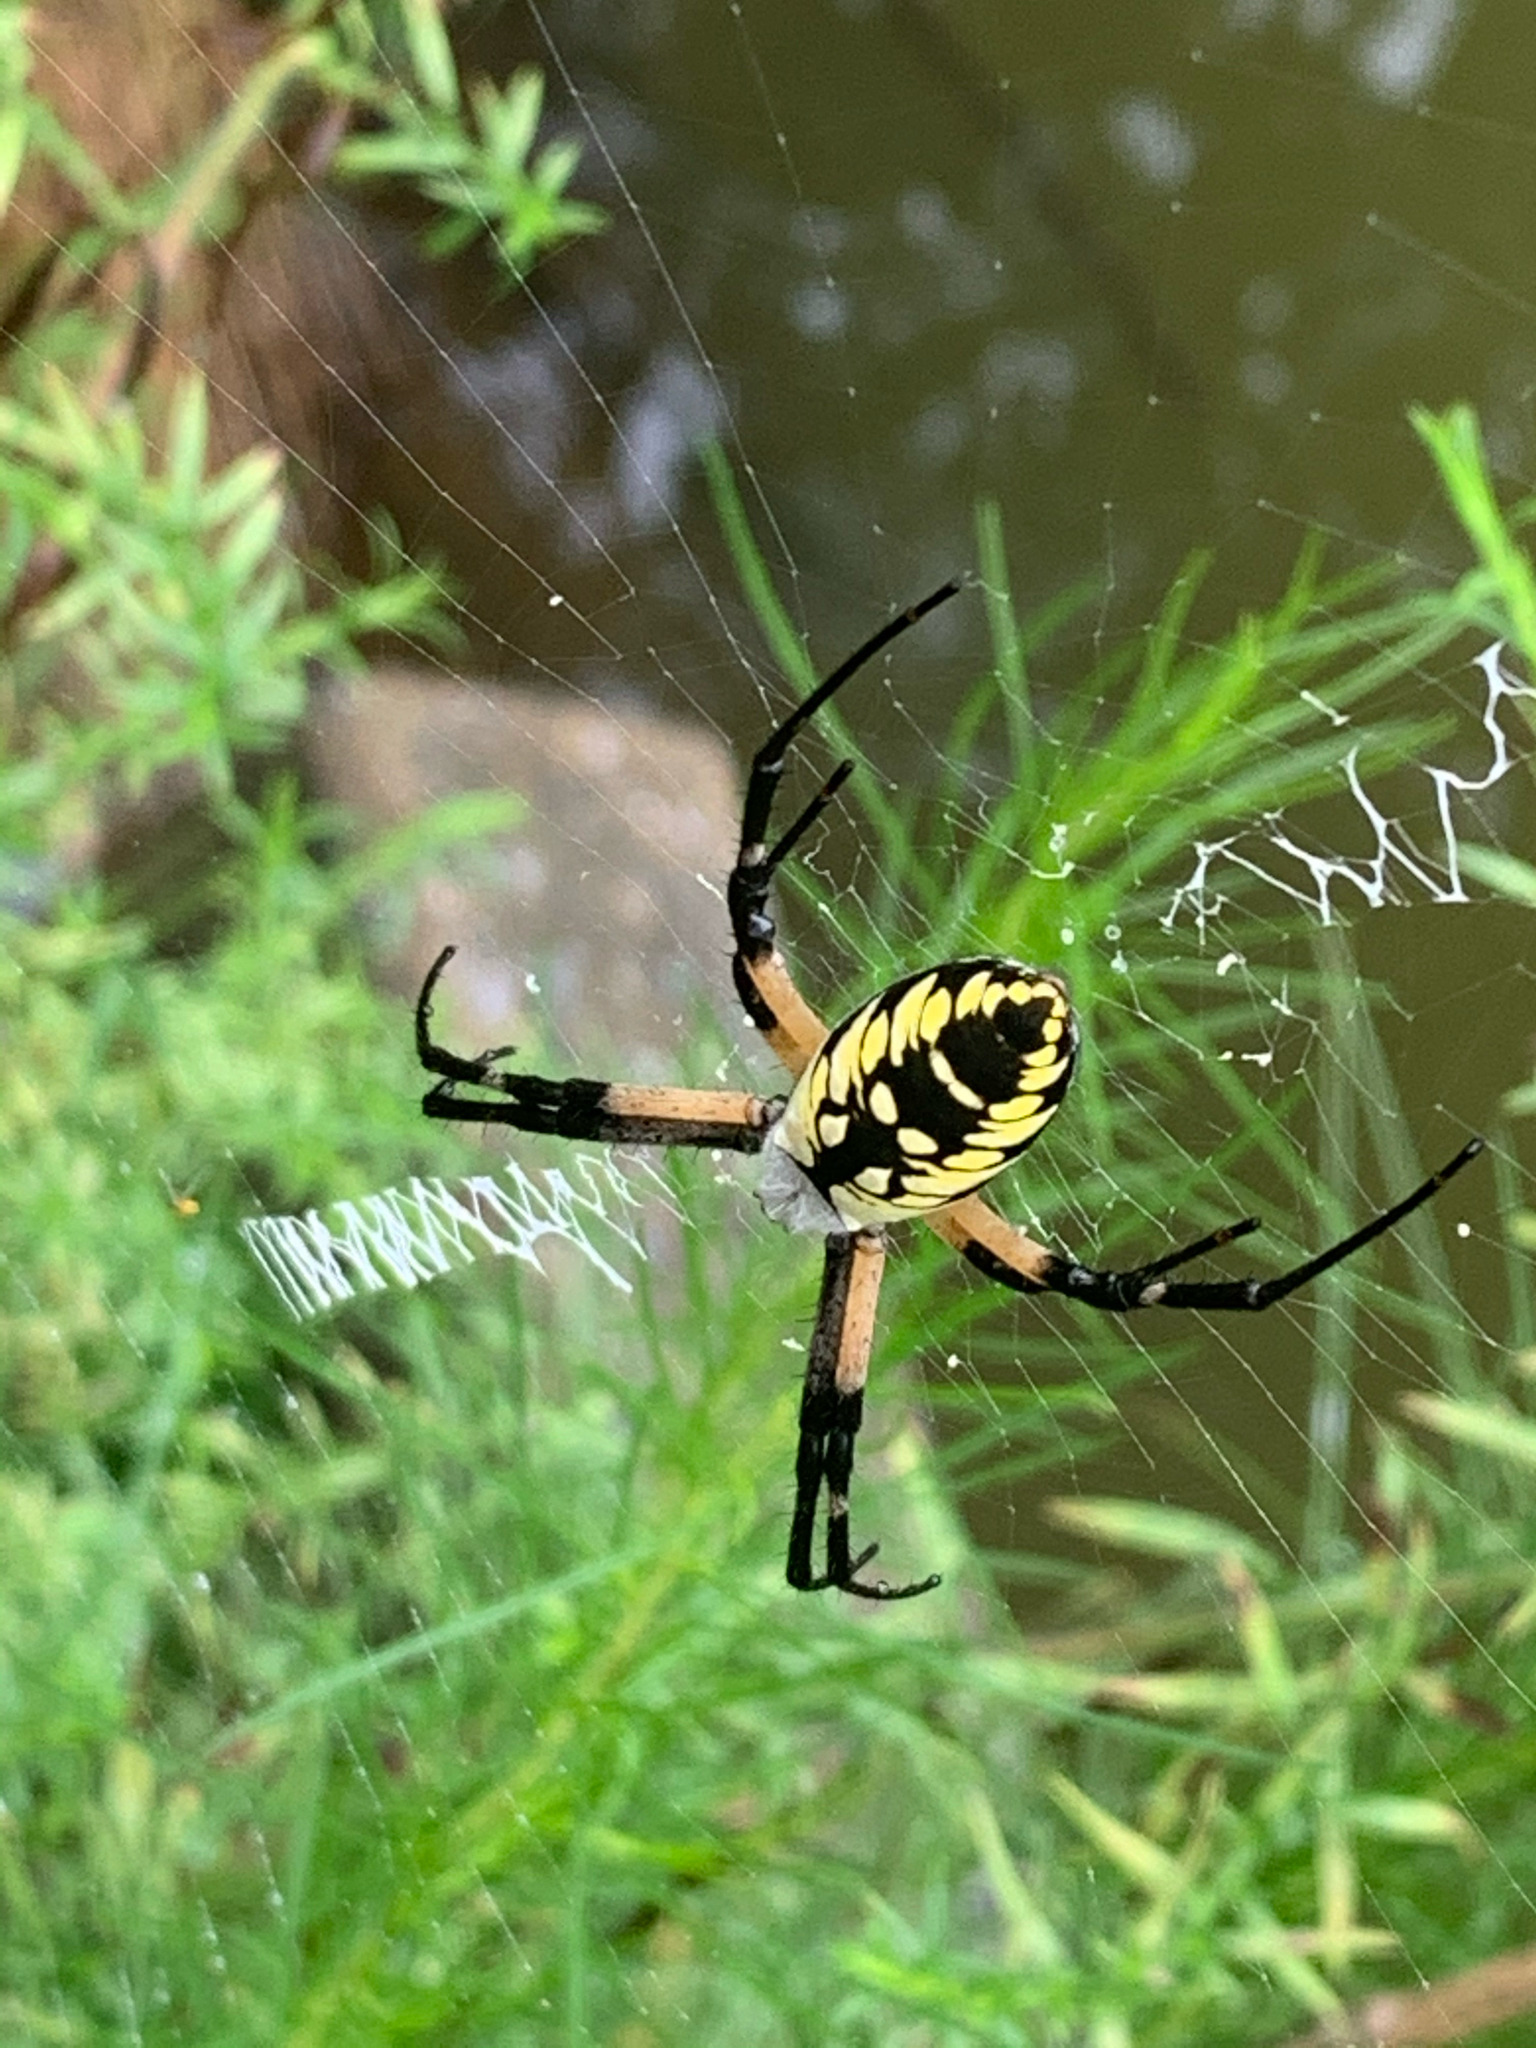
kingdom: Animalia
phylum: Arthropoda
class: Arachnida
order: Araneae
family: Araneidae
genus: Argiope
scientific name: Argiope aurantia
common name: Orb weavers
